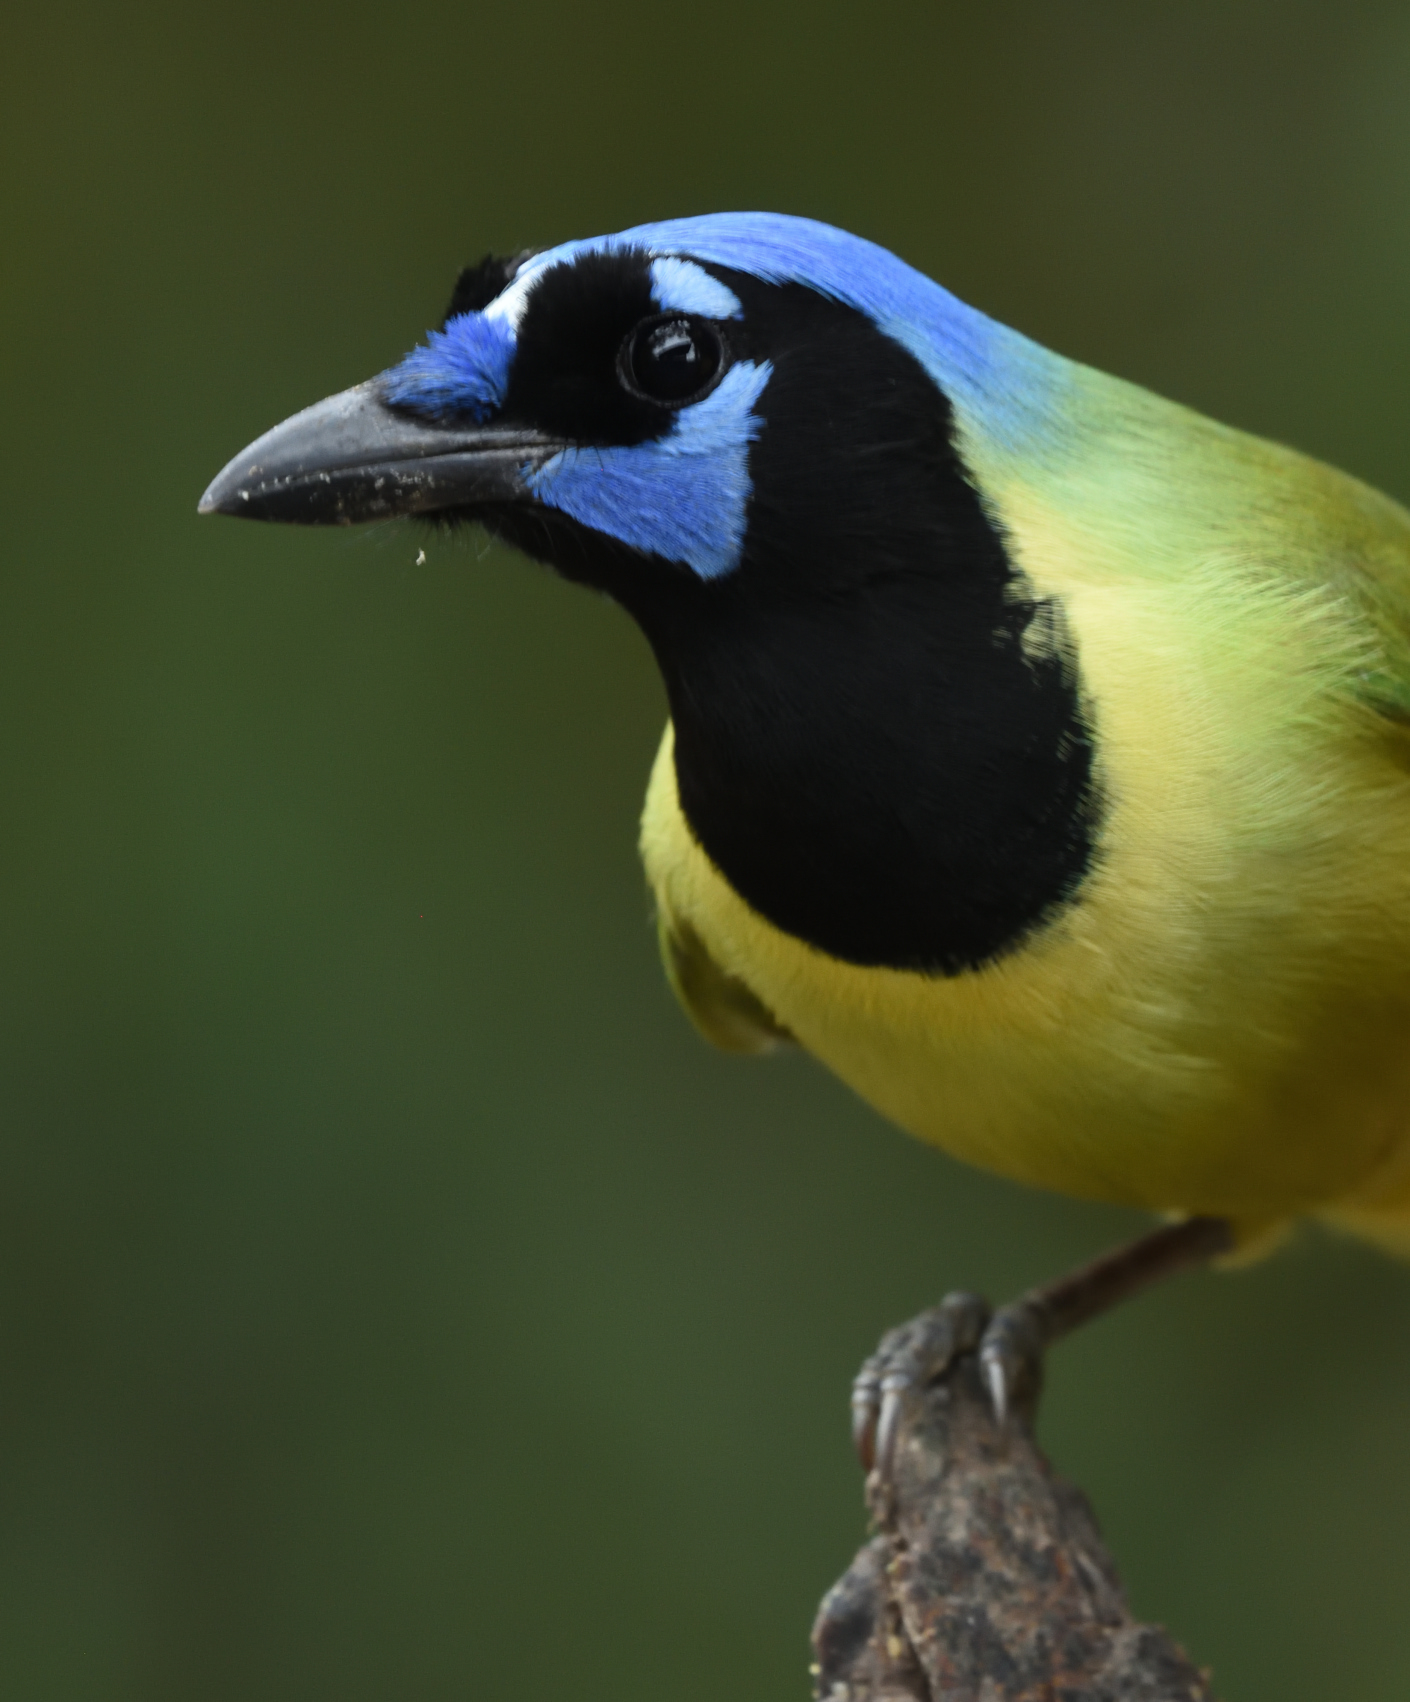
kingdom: Animalia
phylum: Chordata
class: Aves
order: Passeriformes
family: Corvidae
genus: Cyanocorax
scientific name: Cyanocorax yncas
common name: Green jay
